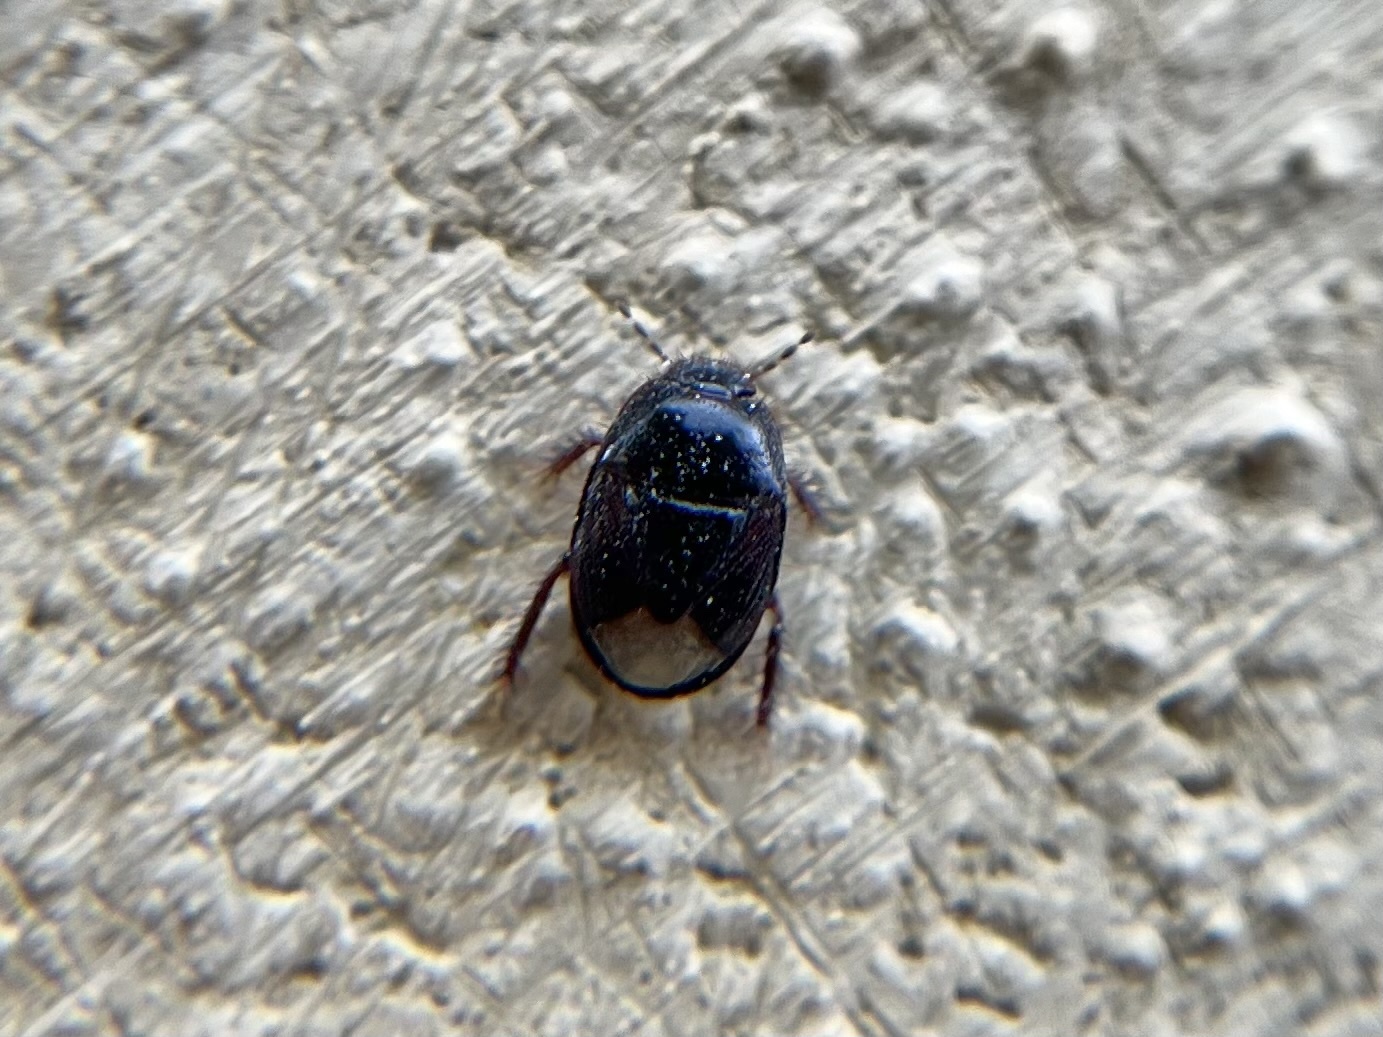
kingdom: Animalia
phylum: Arthropoda
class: Insecta
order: Hemiptera
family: Cydnidae
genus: Microporus
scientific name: Microporus nigrita
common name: Burrower bug
